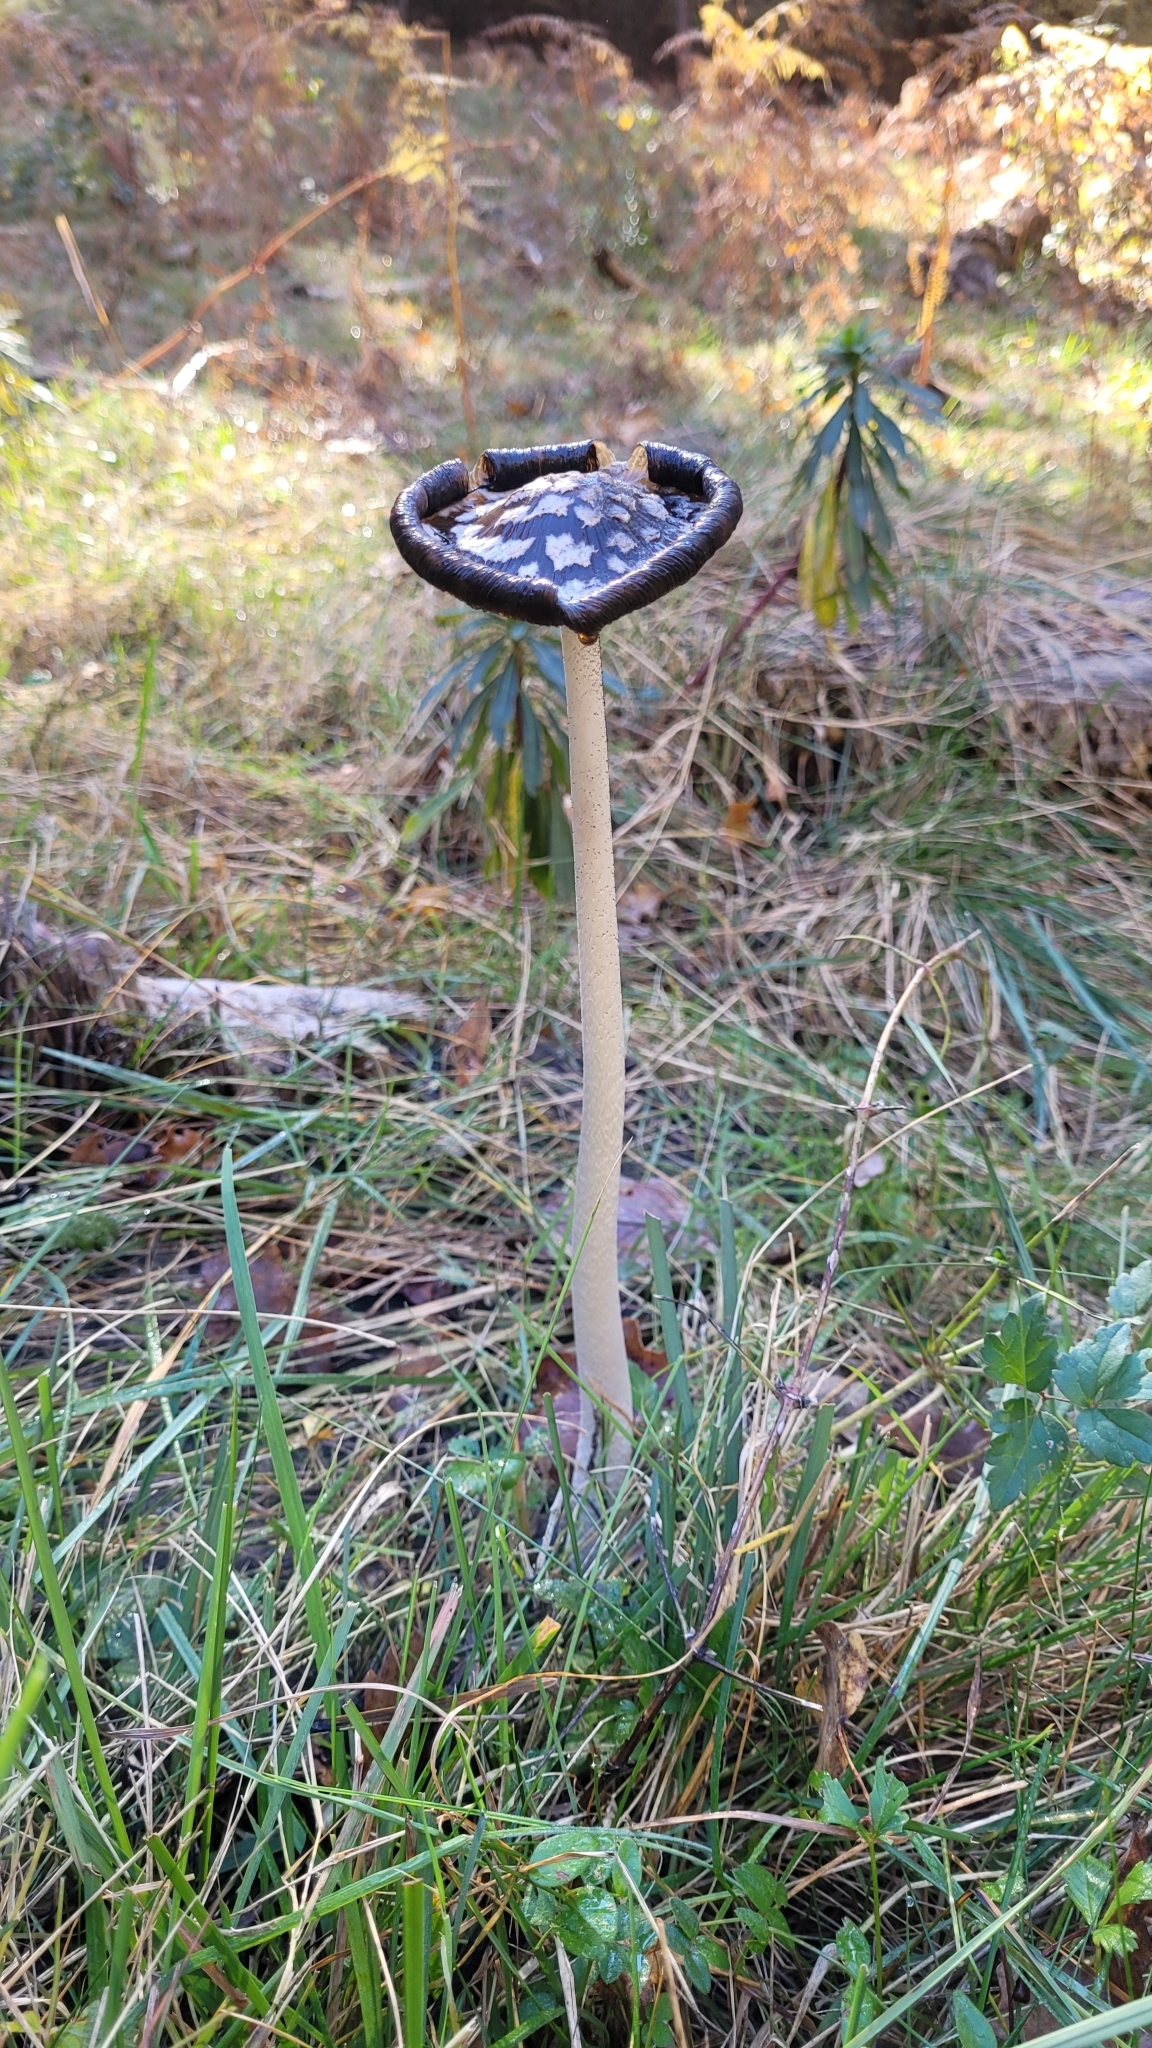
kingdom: Fungi
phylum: Basidiomycota
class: Agaricomycetes
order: Agaricales
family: Psathyrellaceae
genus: Coprinopsis
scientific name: Coprinopsis picacea
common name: Magpie inkcap
